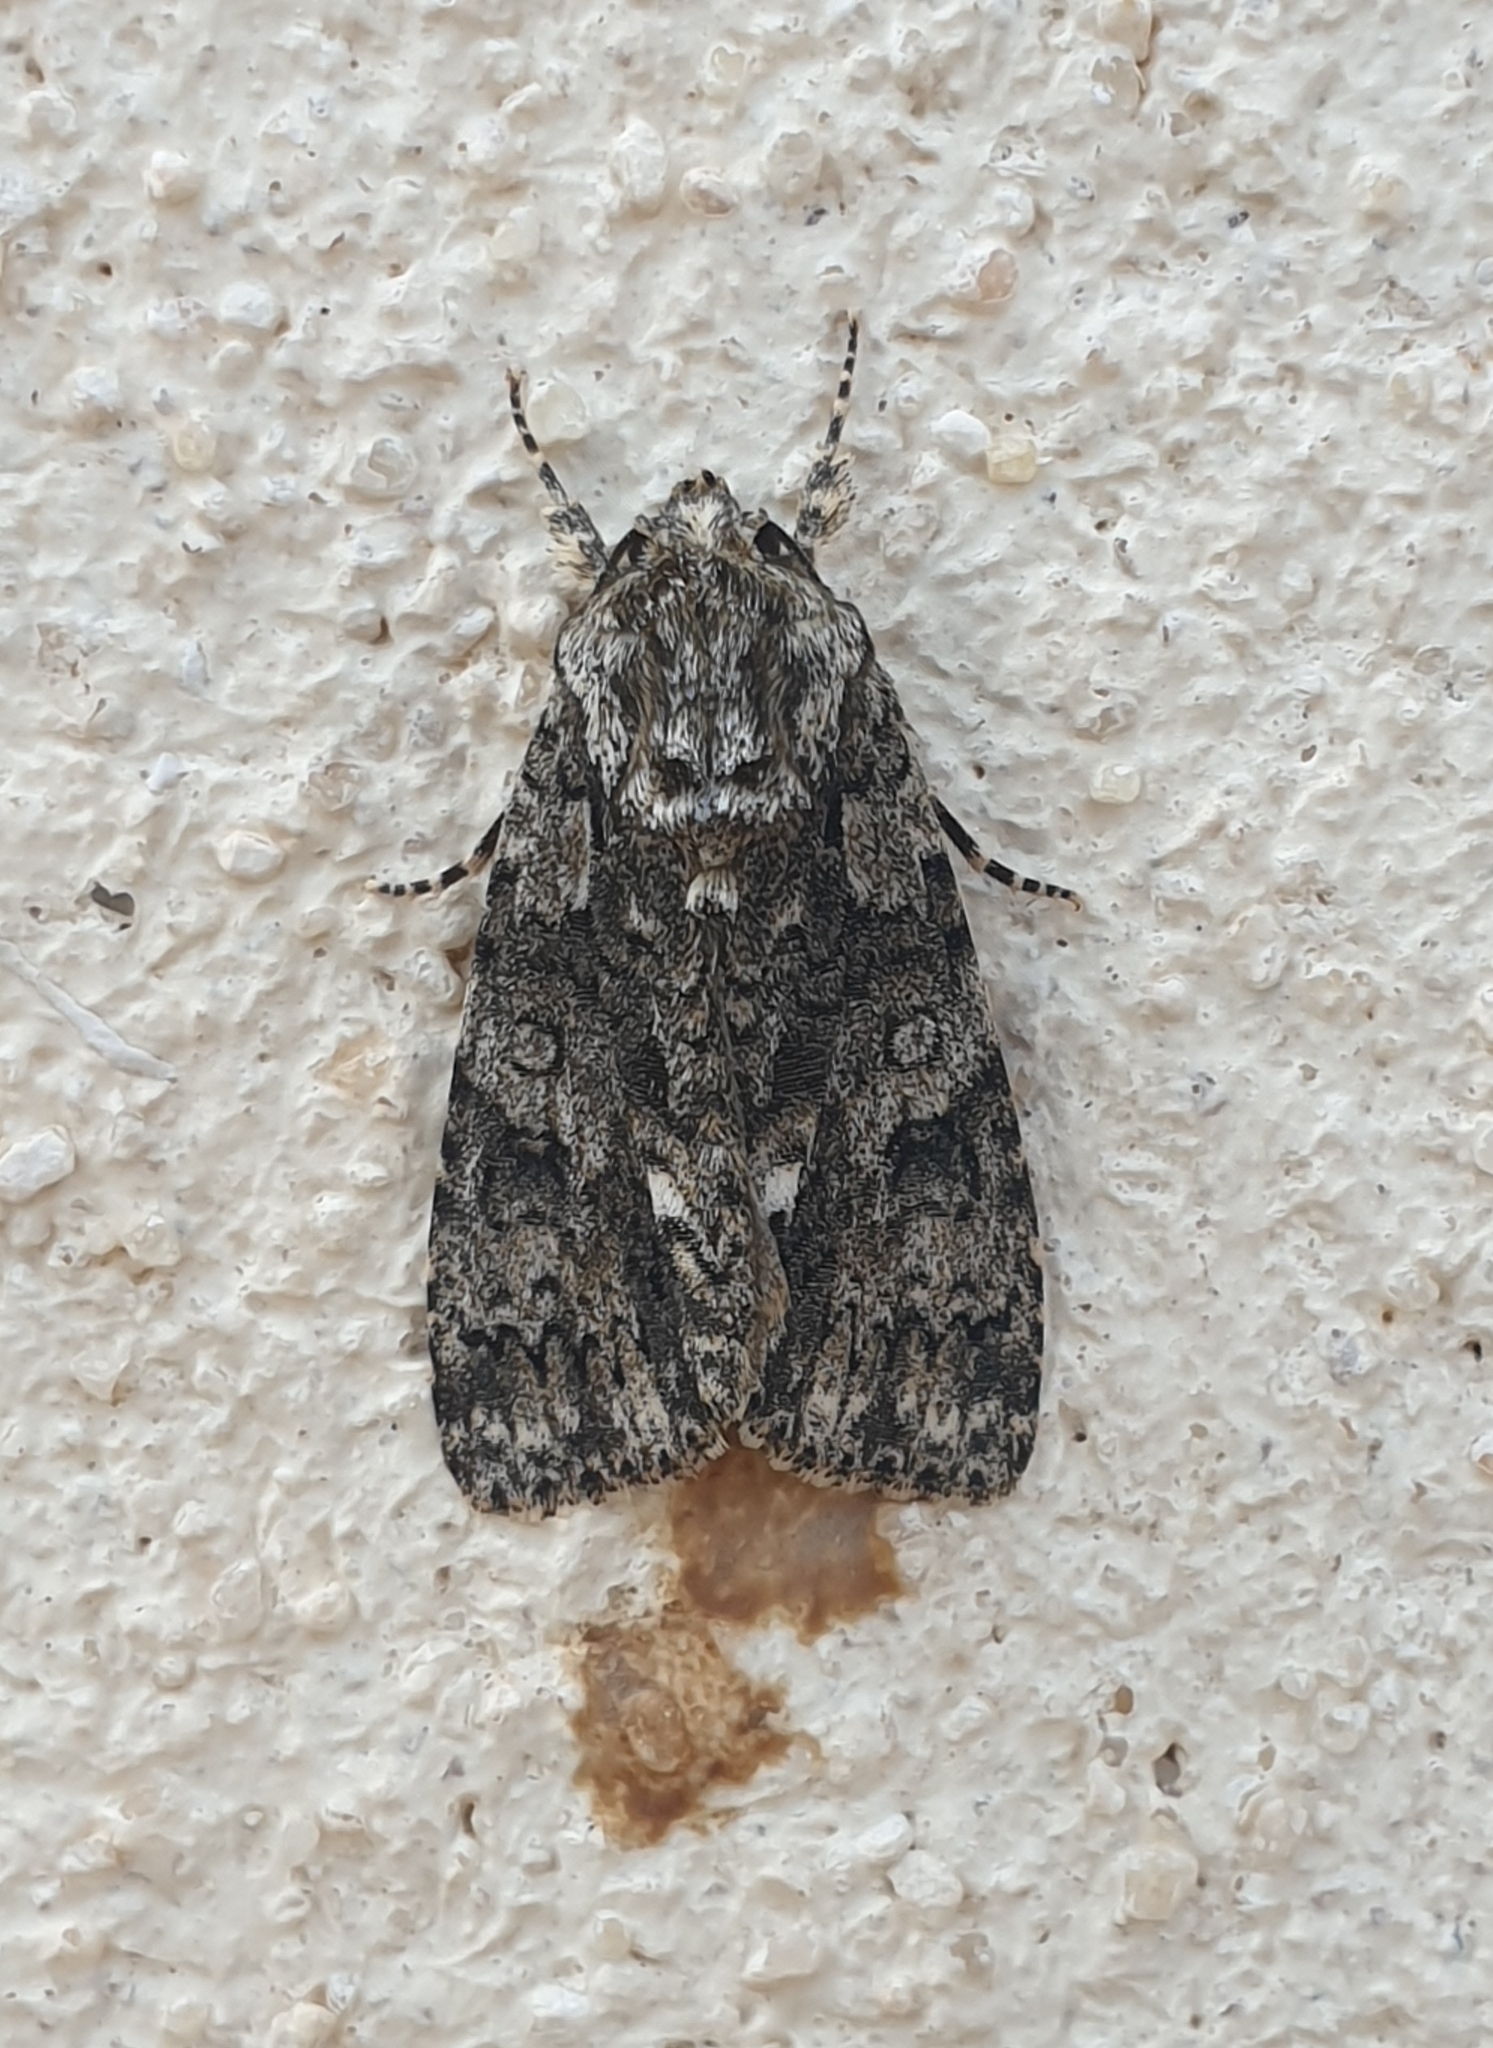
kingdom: Animalia
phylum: Arthropoda
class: Insecta
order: Lepidoptera
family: Noctuidae
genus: Acronicta
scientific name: Acronicta rumicis
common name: Knot grass
